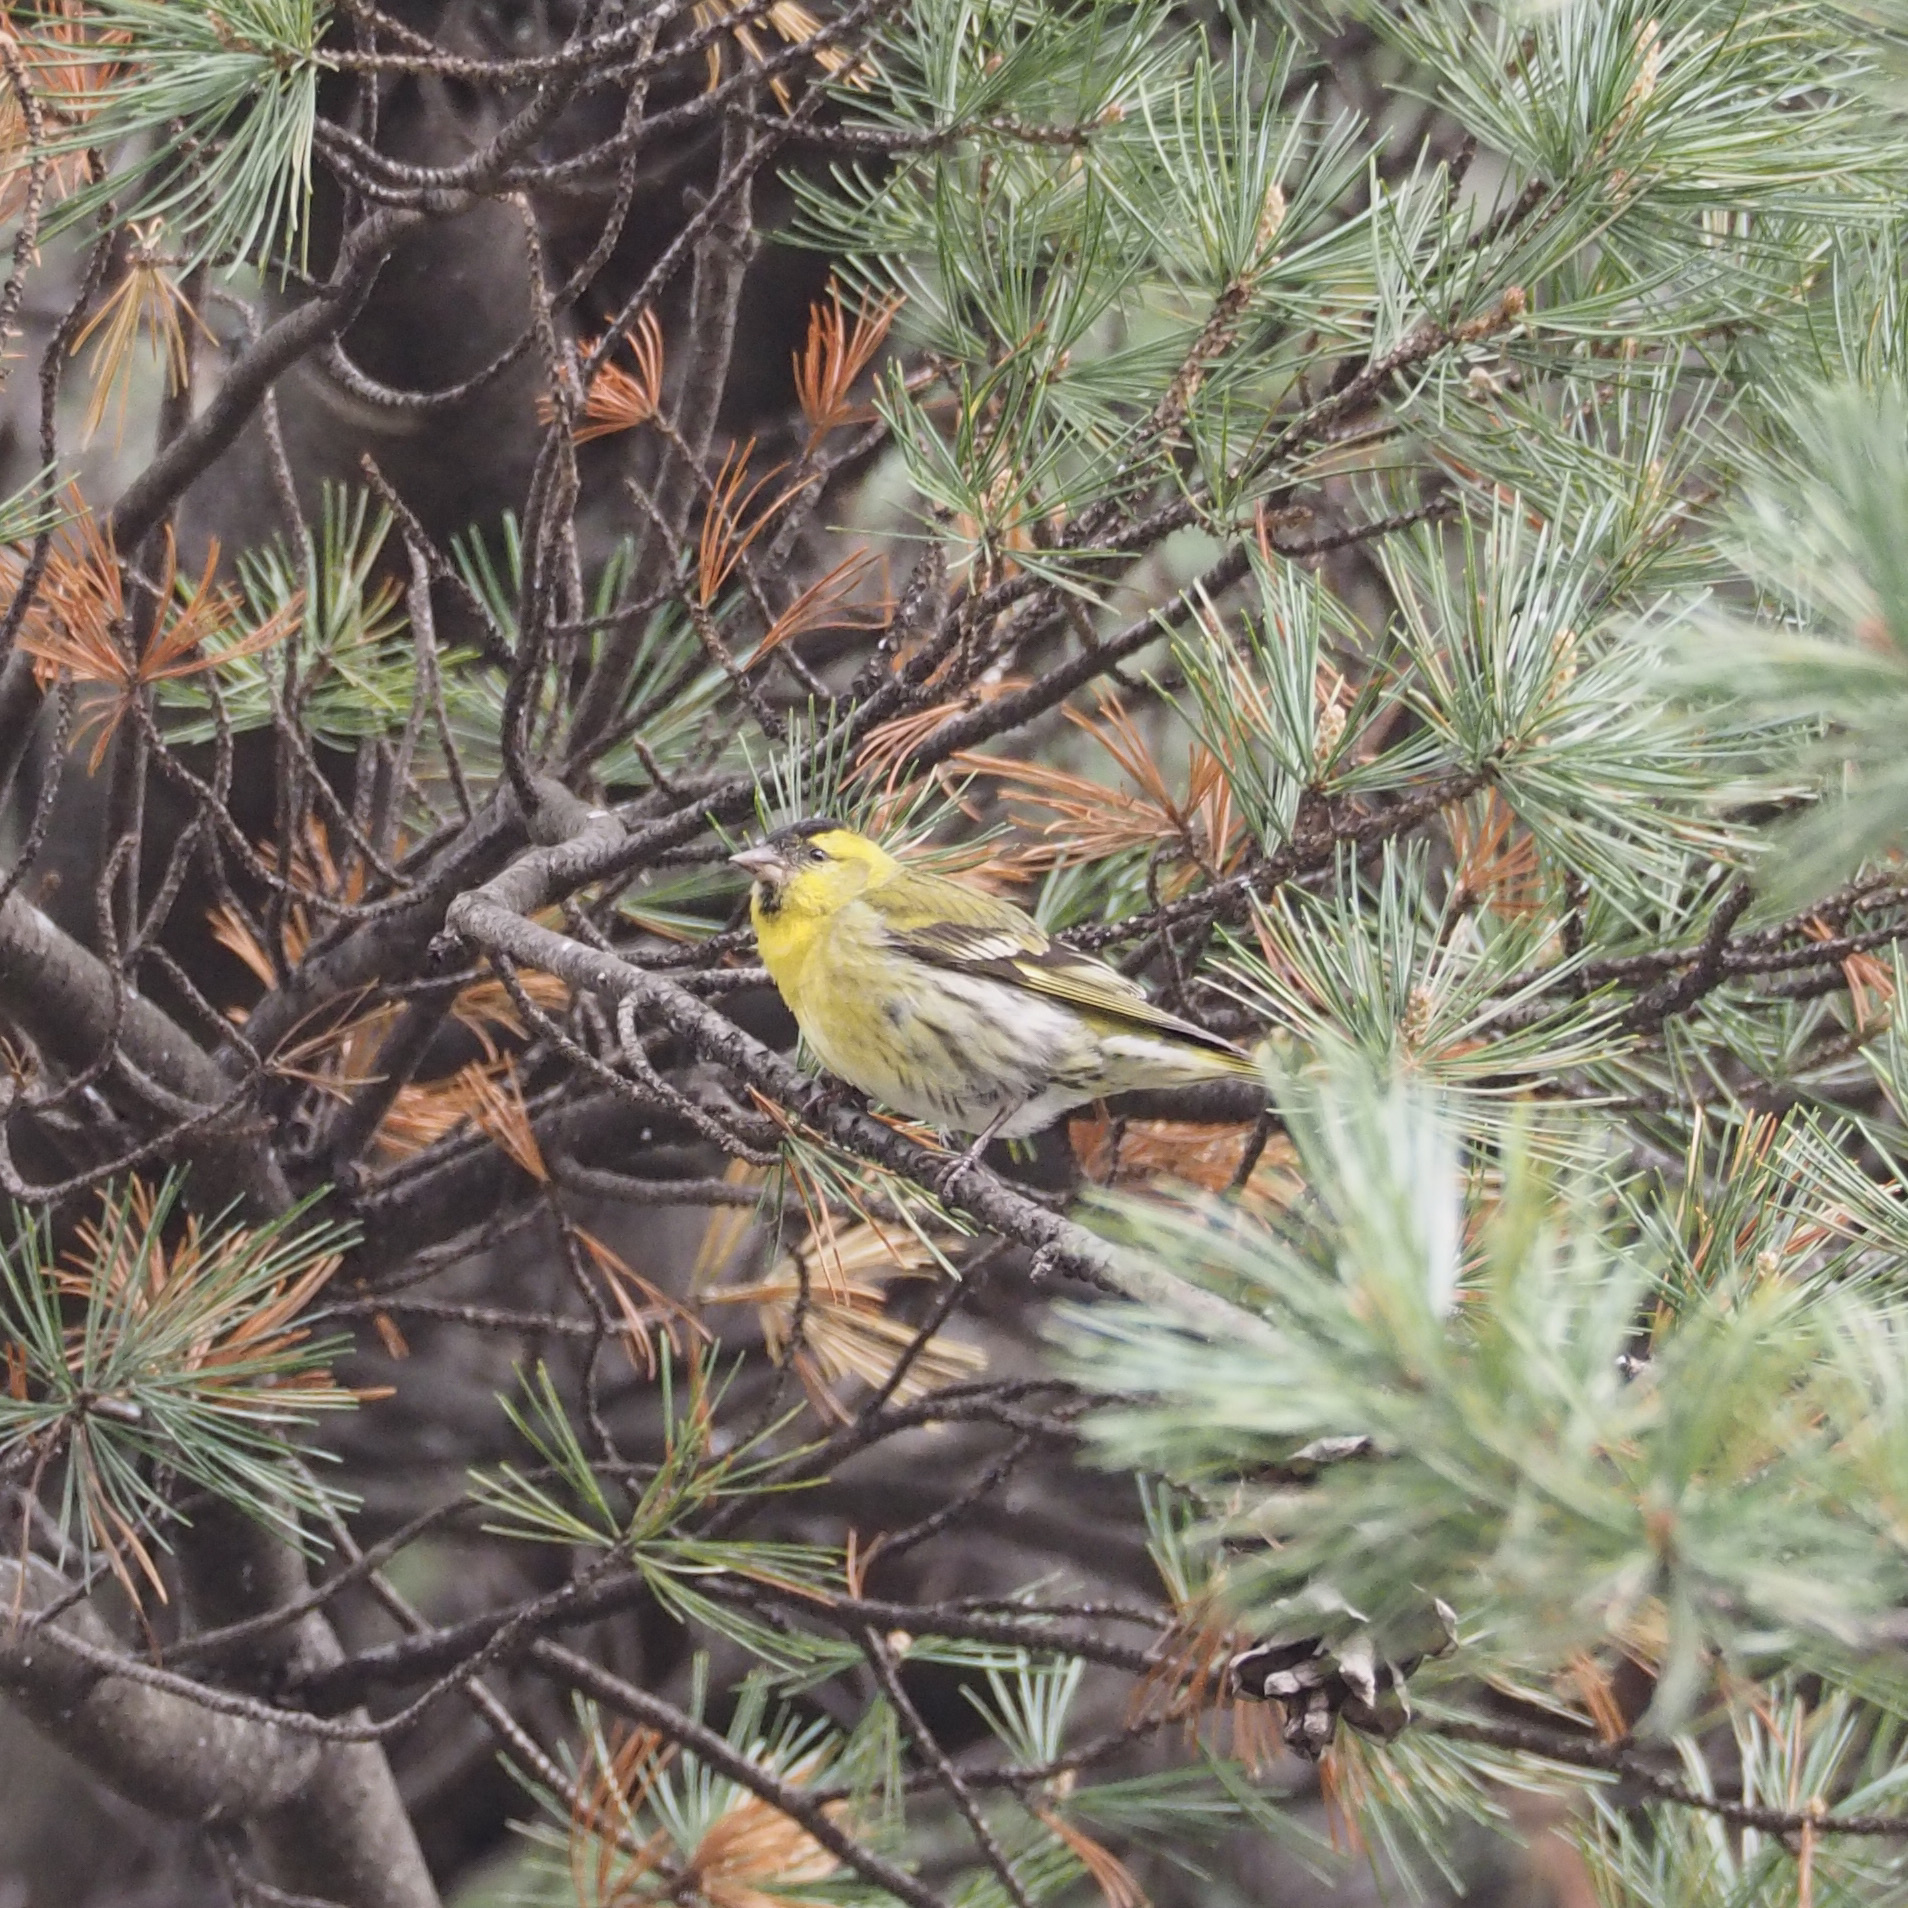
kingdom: Animalia
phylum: Chordata
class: Aves
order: Passeriformes
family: Fringillidae
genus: Spinus
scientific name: Spinus spinus
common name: Eurasian siskin
